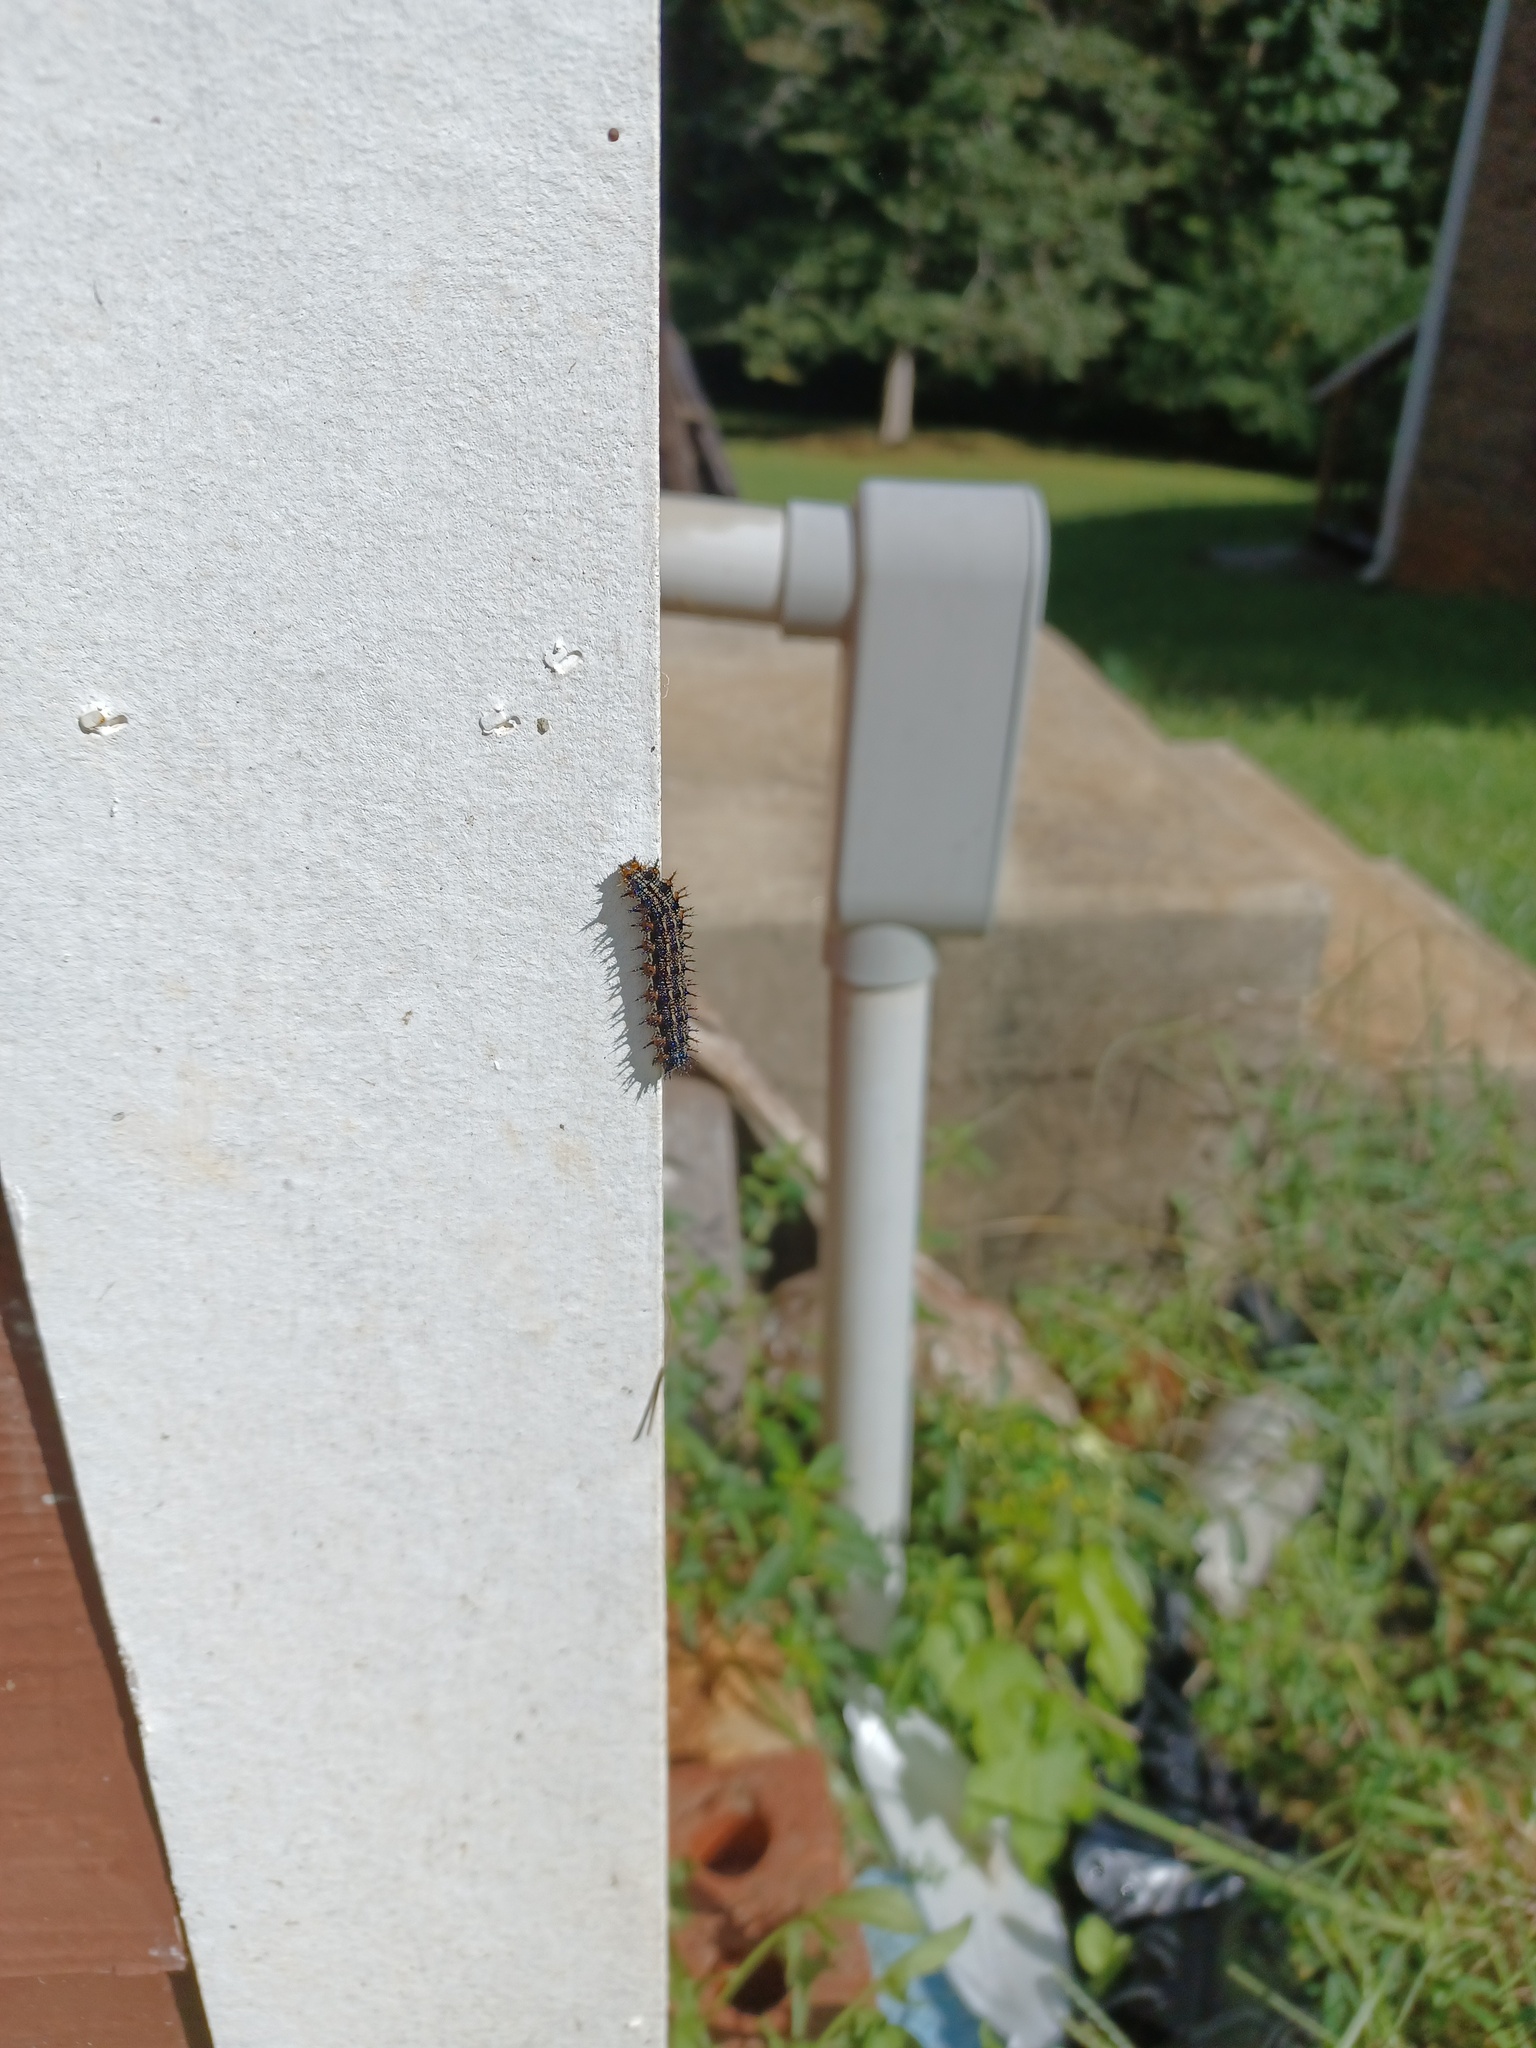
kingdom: Animalia
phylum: Arthropoda
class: Insecta
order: Lepidoptera
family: Nymphalidae
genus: Junonia
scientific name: Junonia coenia
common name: Common buckeye
